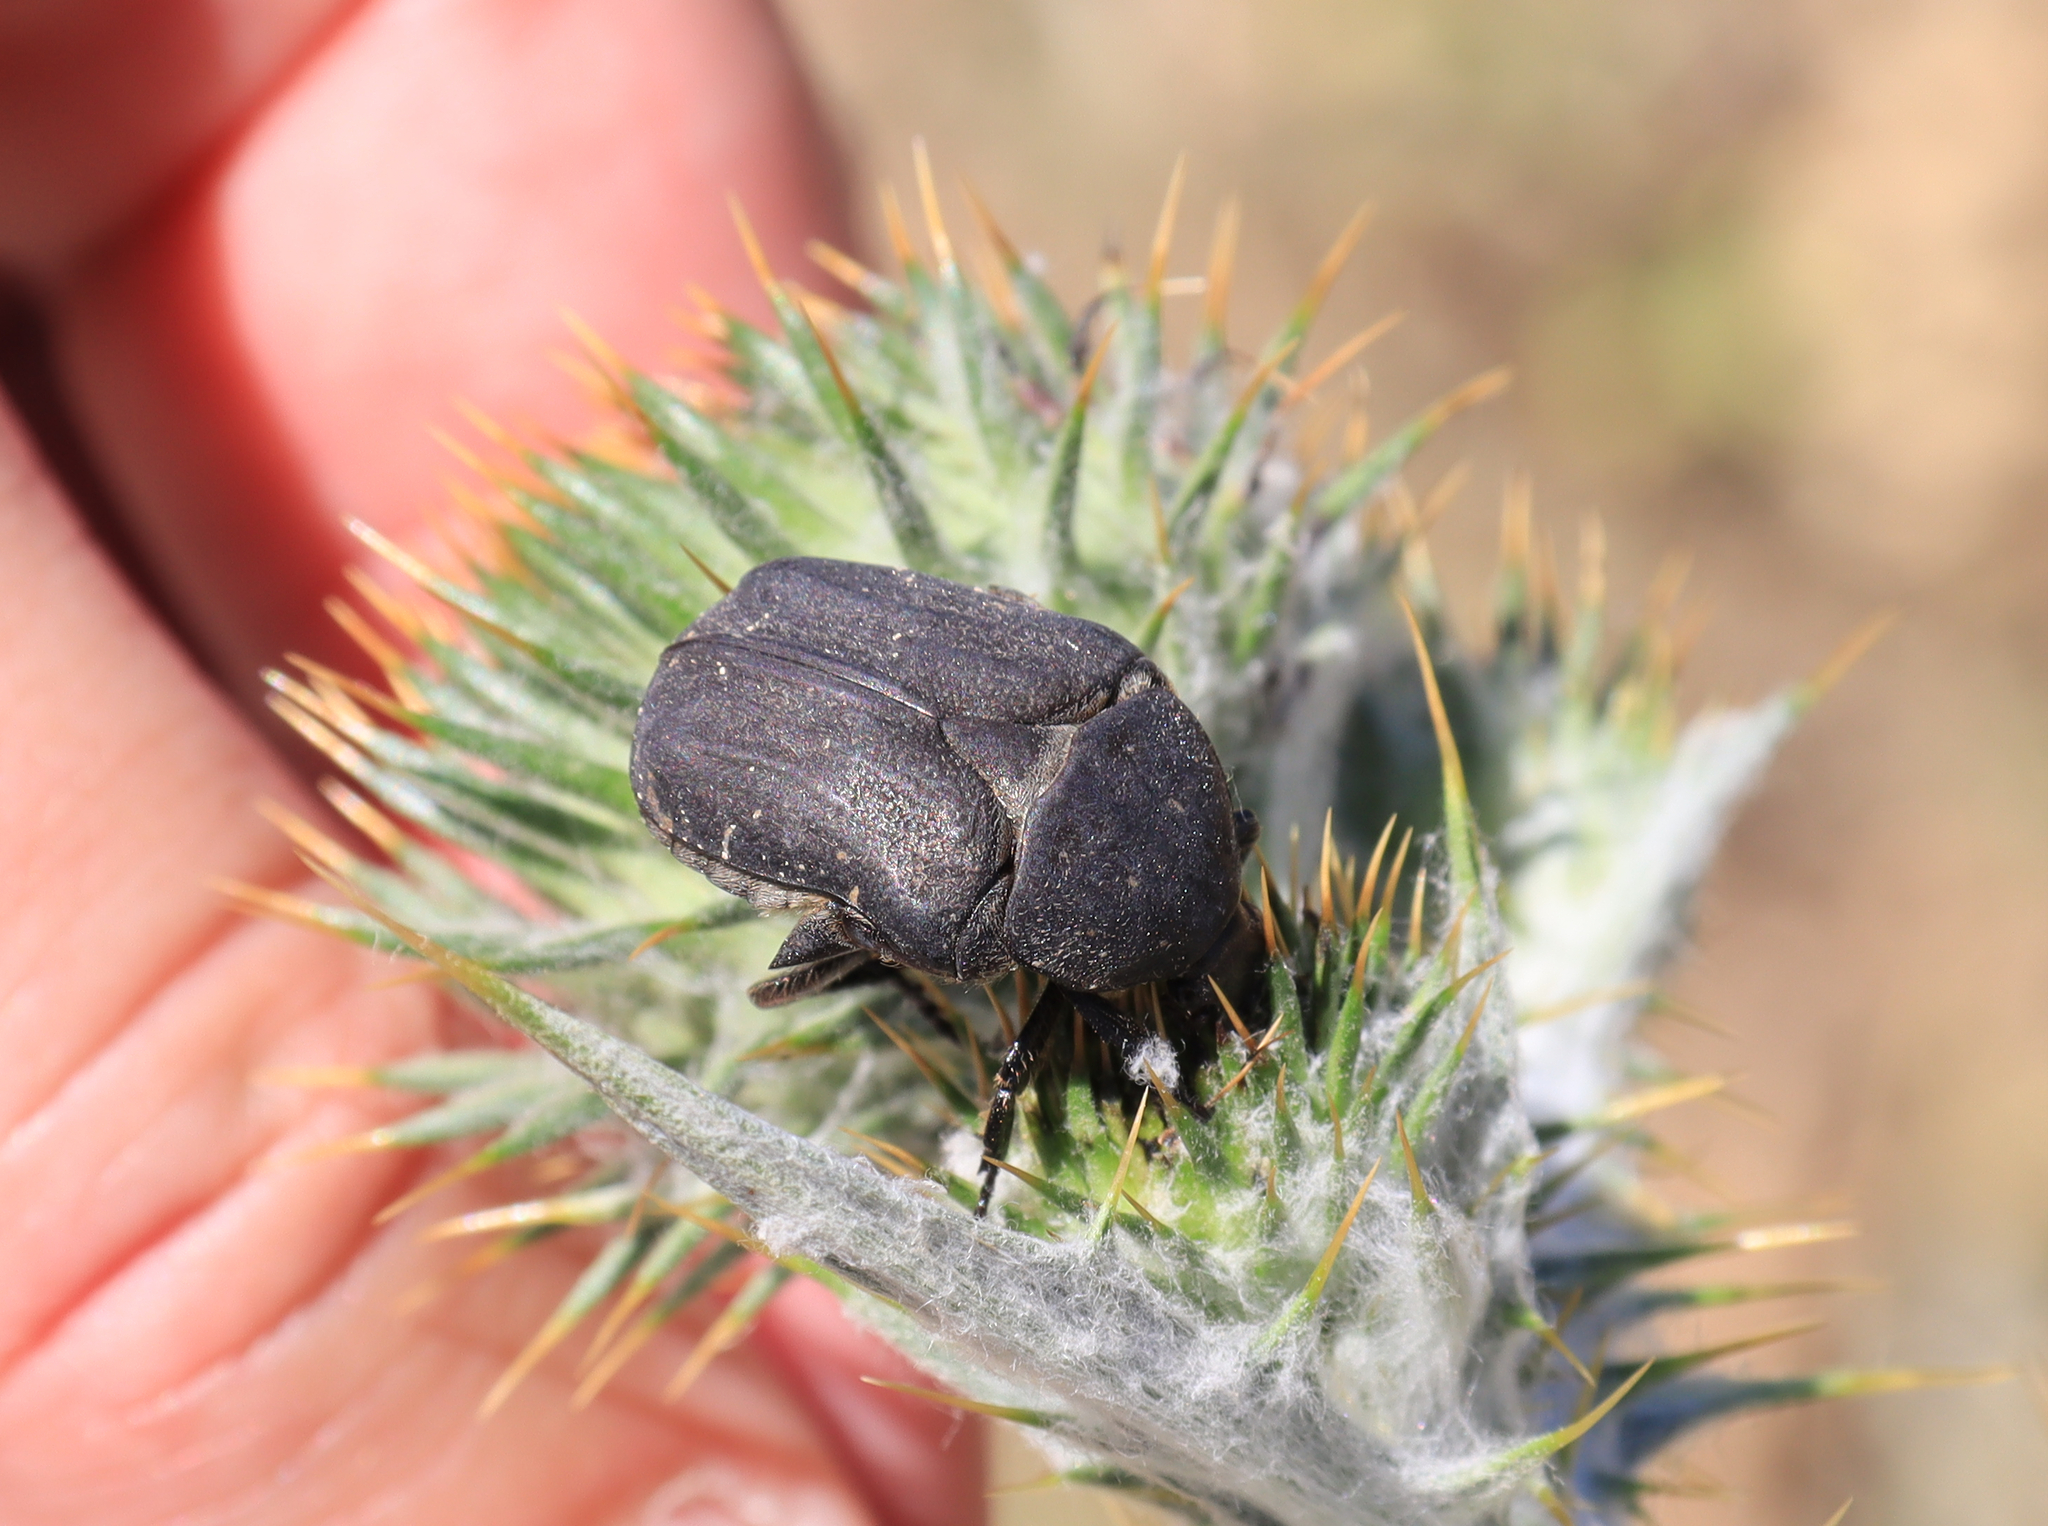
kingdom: Animalia
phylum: Arthropoda
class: Insecta
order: Coleoptera
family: Scarabaeidae
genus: Protaetia
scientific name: Protaetia morio
